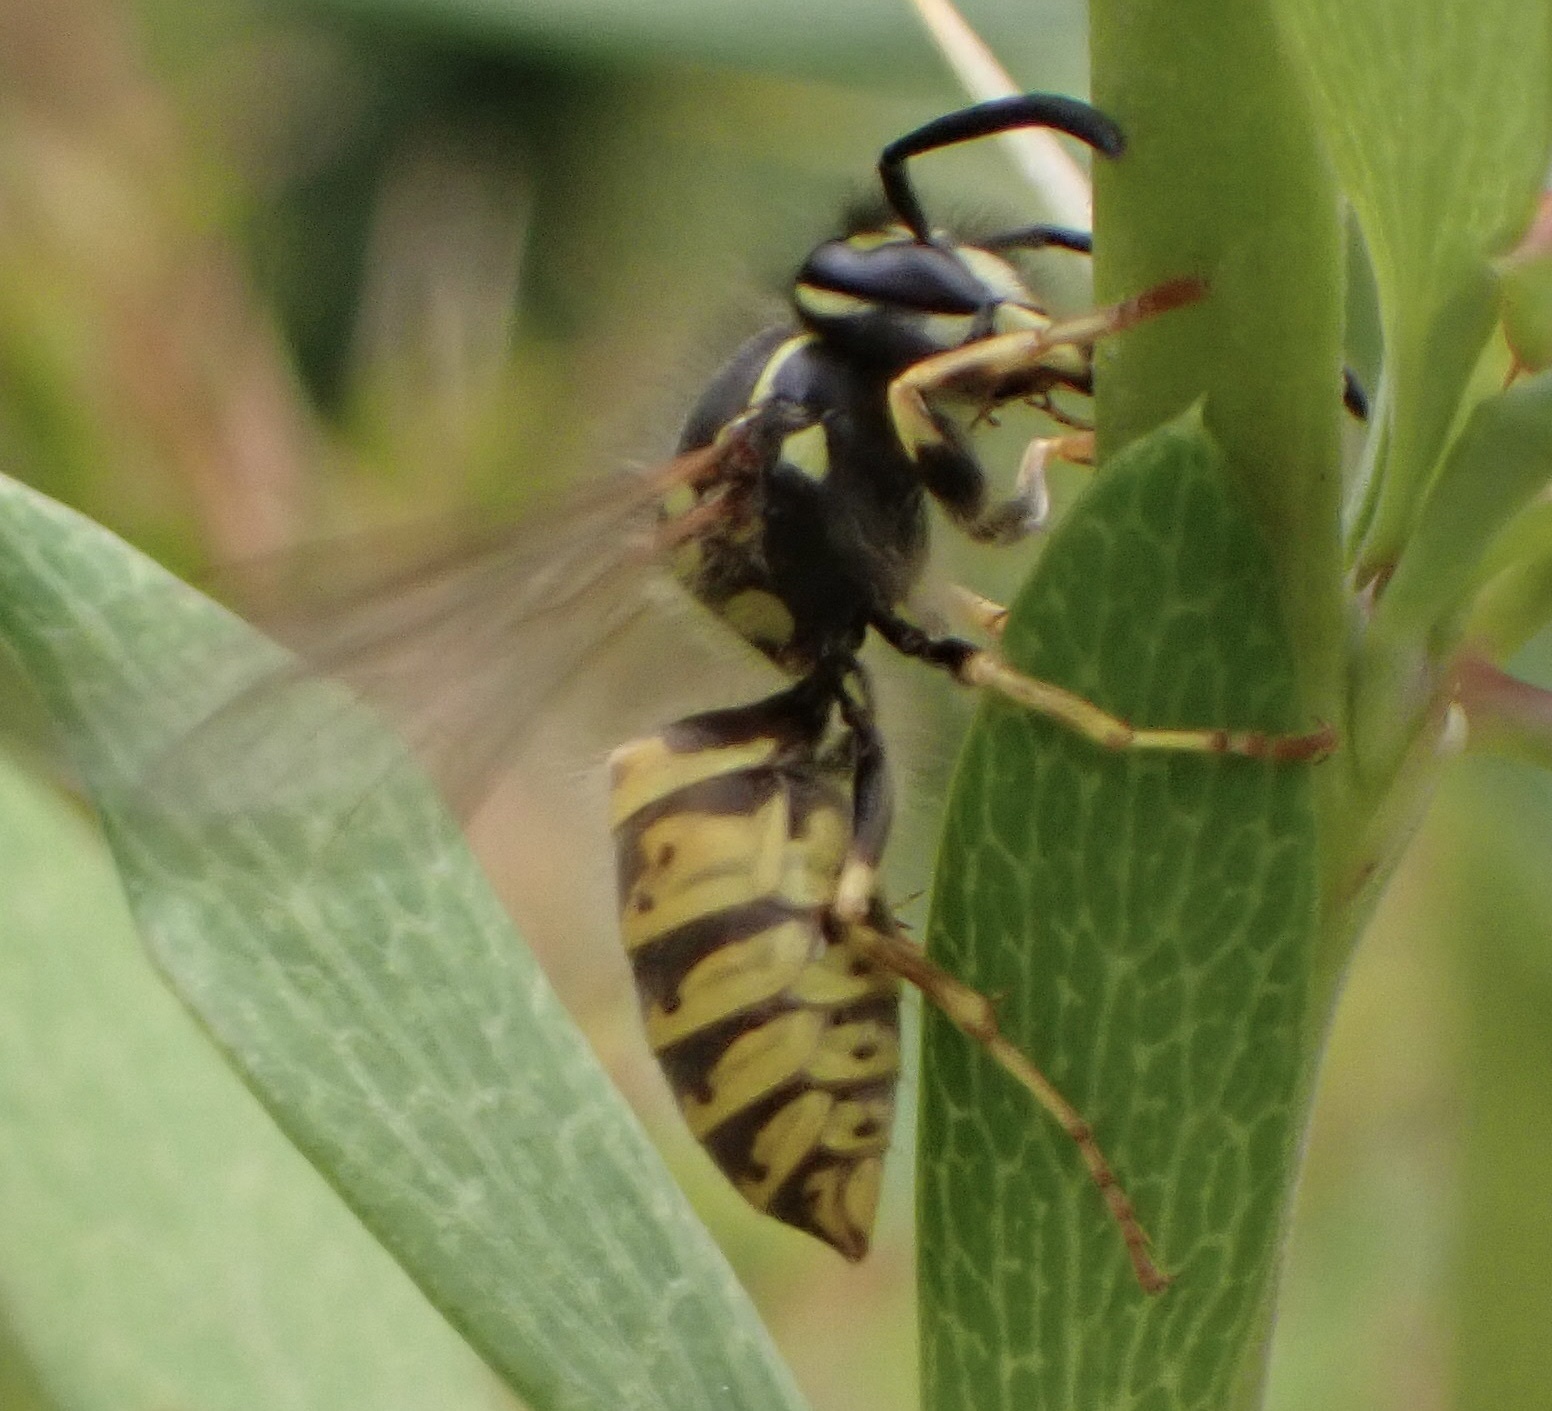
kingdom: Animalia
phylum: Arthropoda
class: Insecta
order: Hymenoptera
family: Vespidae
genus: Vespula
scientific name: Vespula vulgaris
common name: Common wasp
